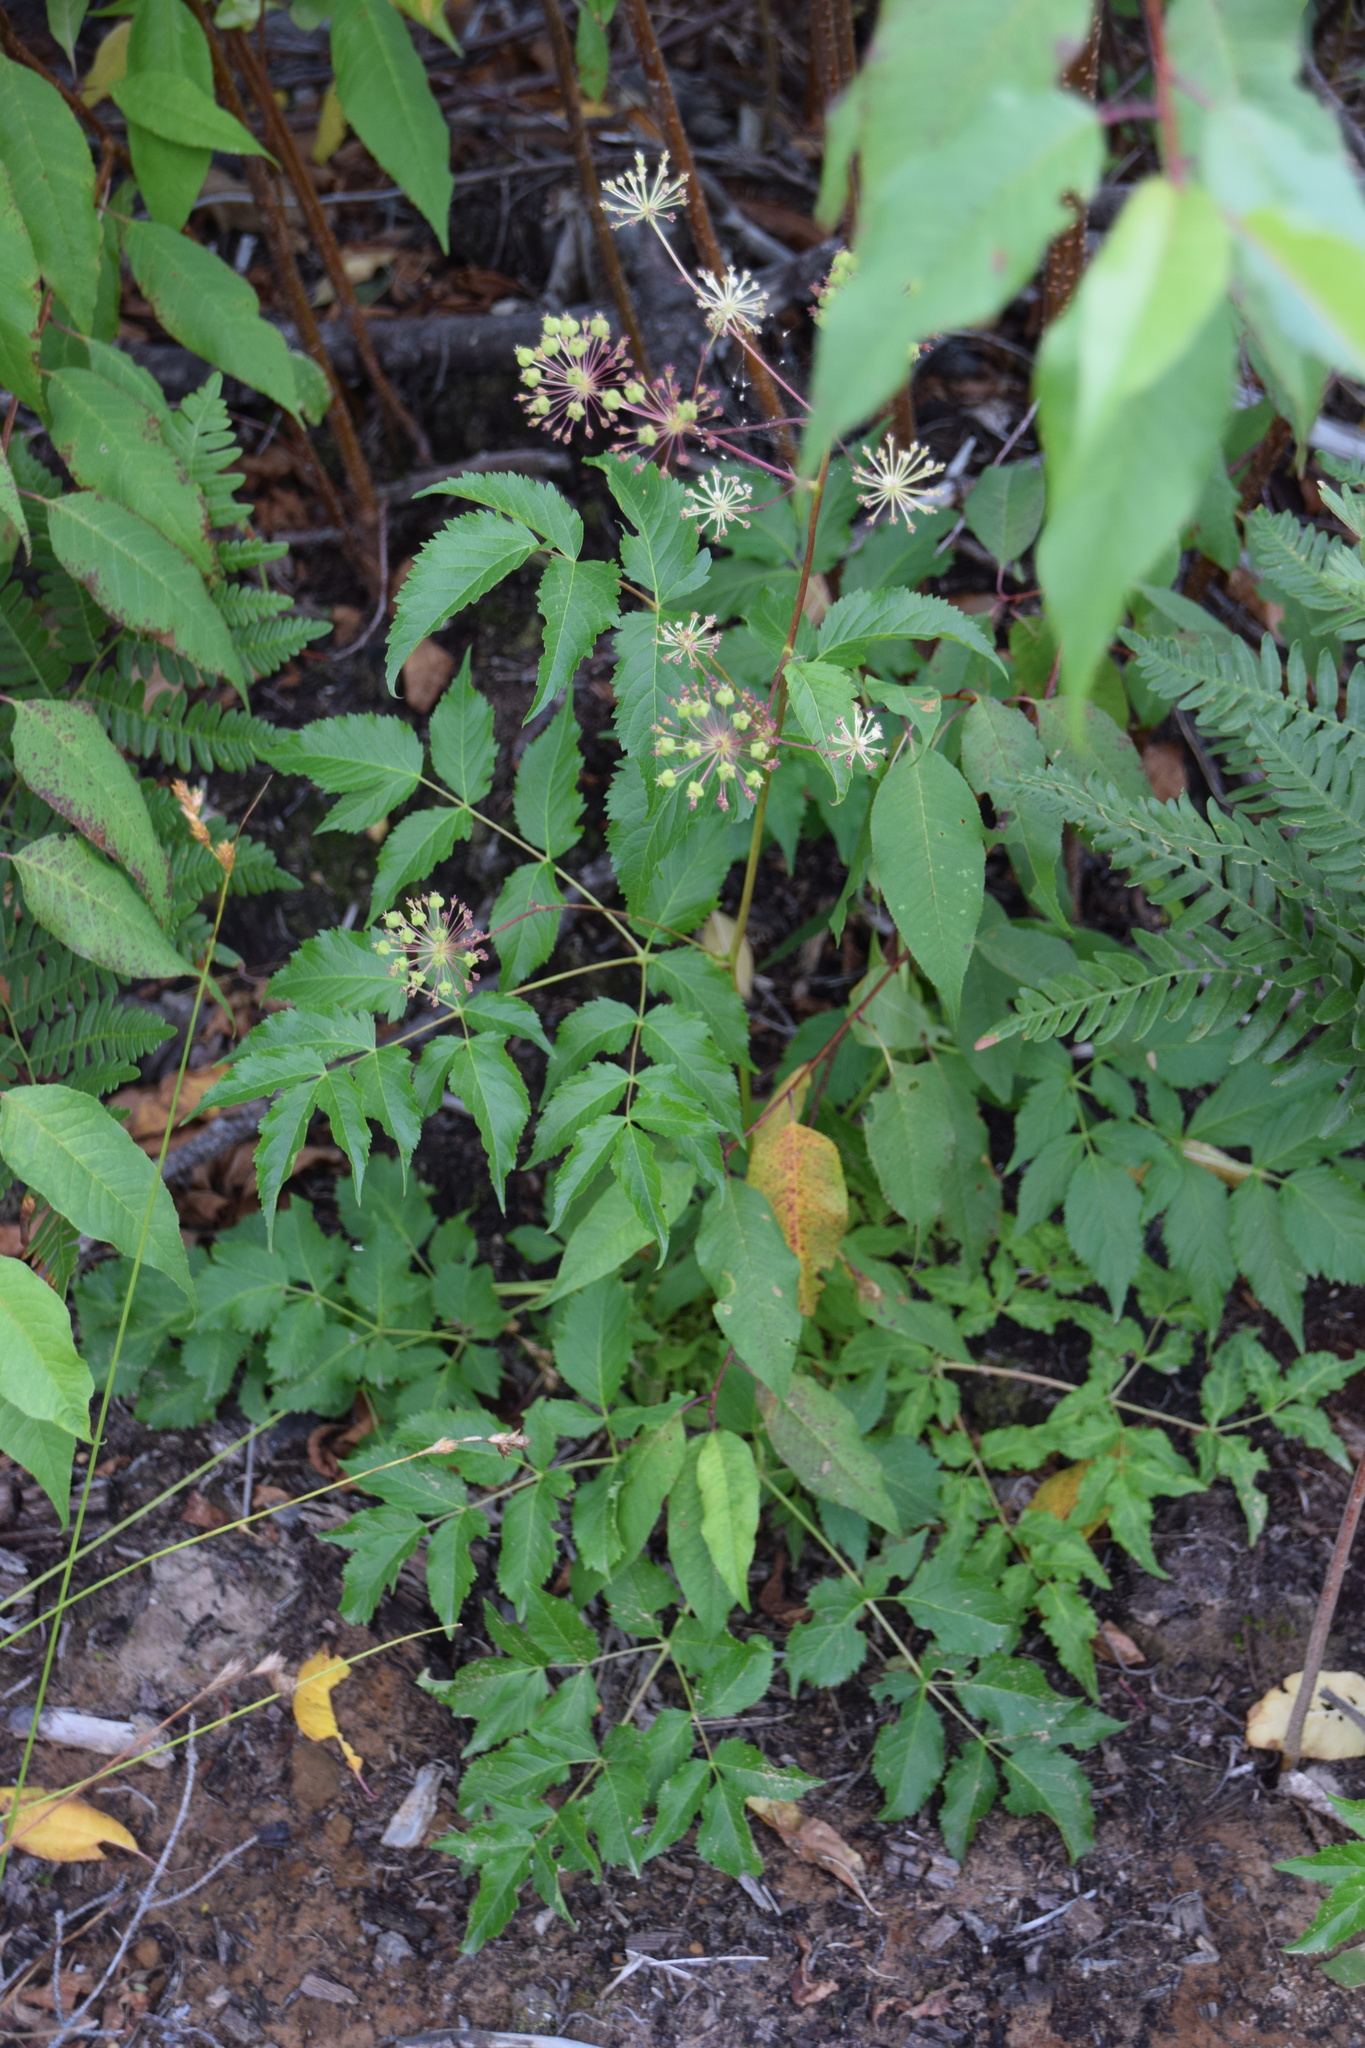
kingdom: Plantae
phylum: Tracheophyta
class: Magnoliopsida
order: Apiales
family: Araliaceae
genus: Aralia
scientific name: Aralia hispida
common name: Bristly sarsaparilla
